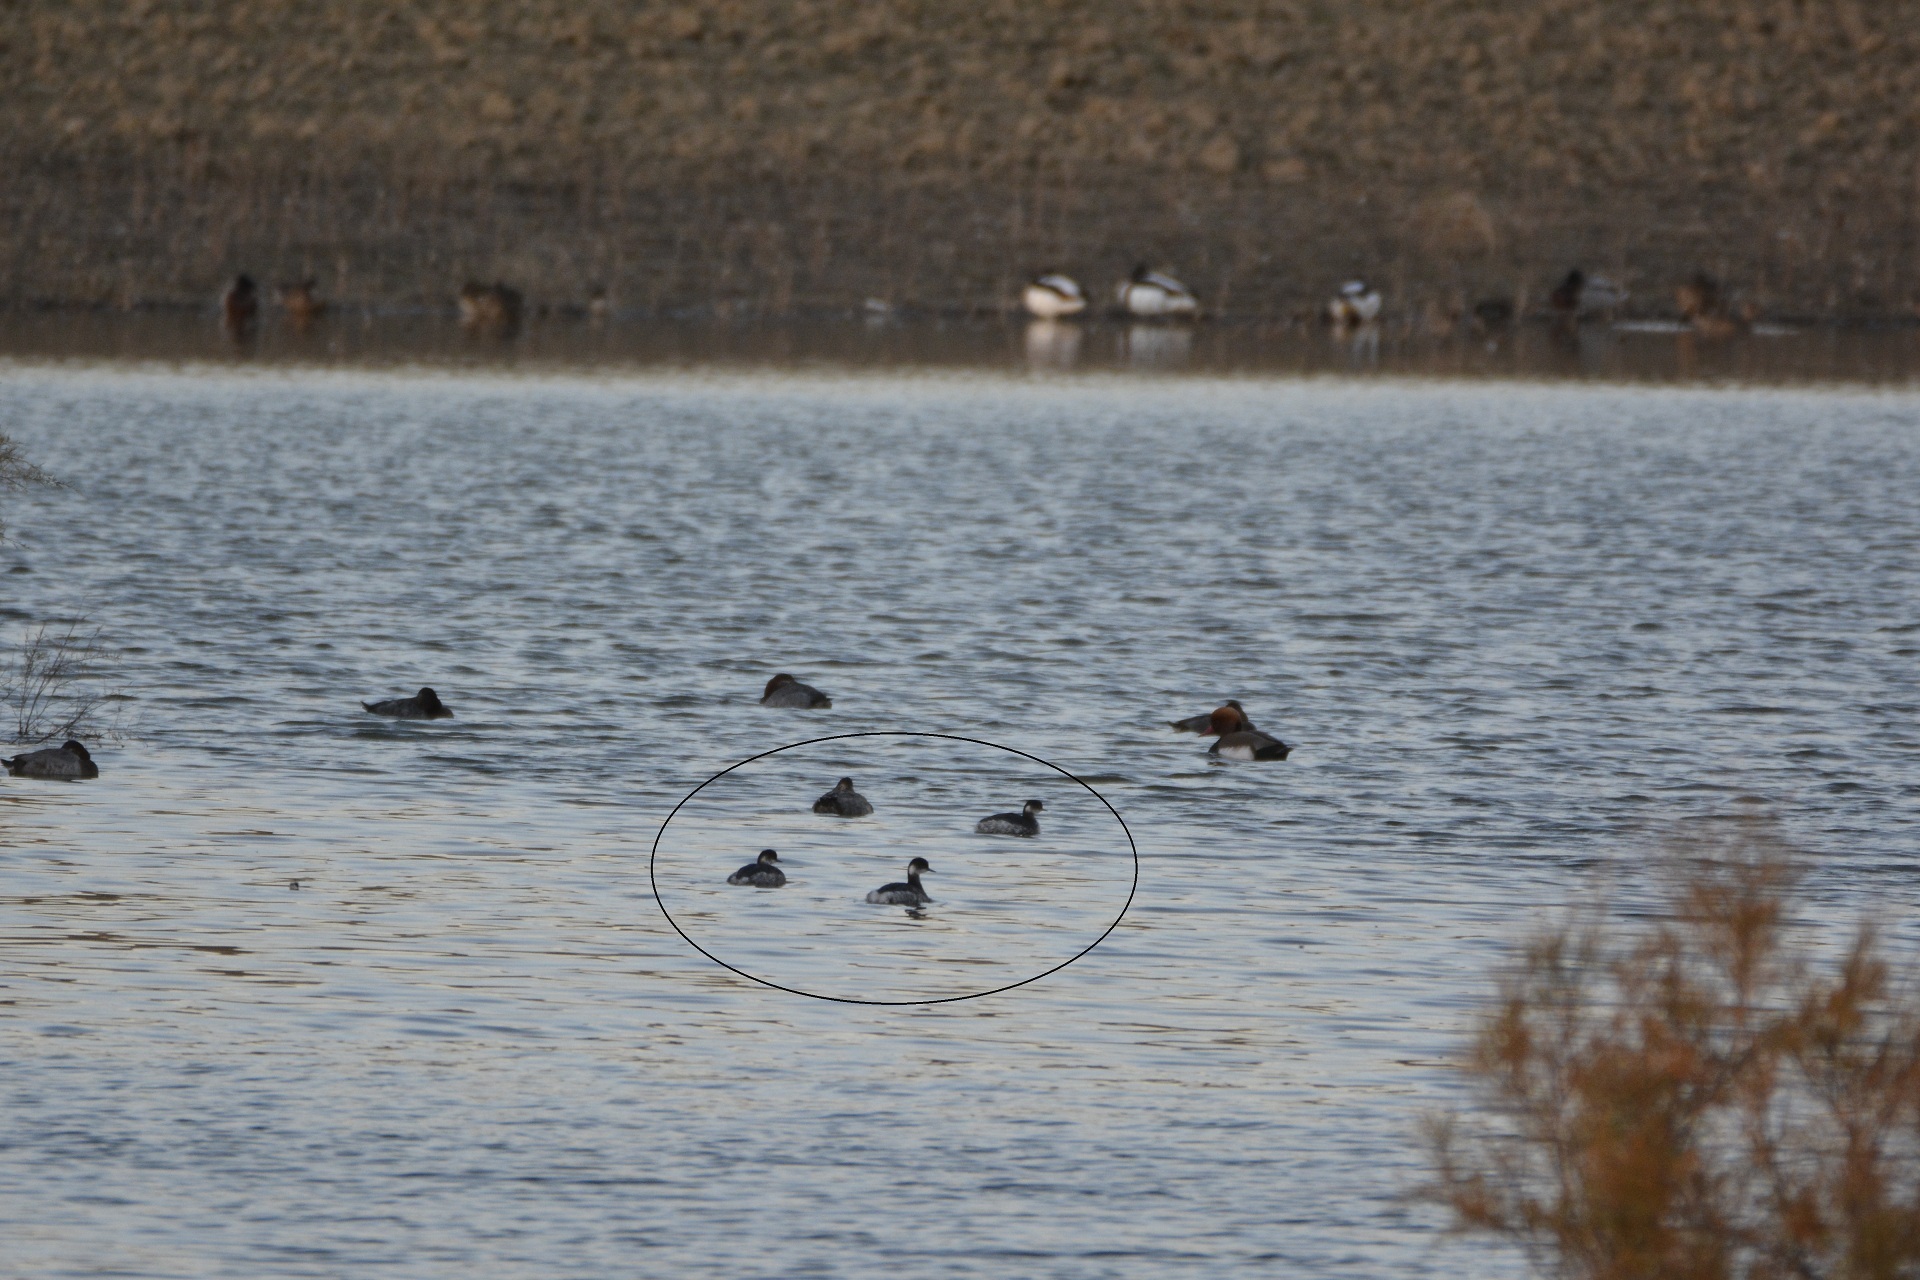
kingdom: Animalia
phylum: Chordata
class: Aves
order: Podicipediformes
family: Podicipedidae
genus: Podiceps
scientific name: Podiceps nigricollis
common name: Black-necked grebe
